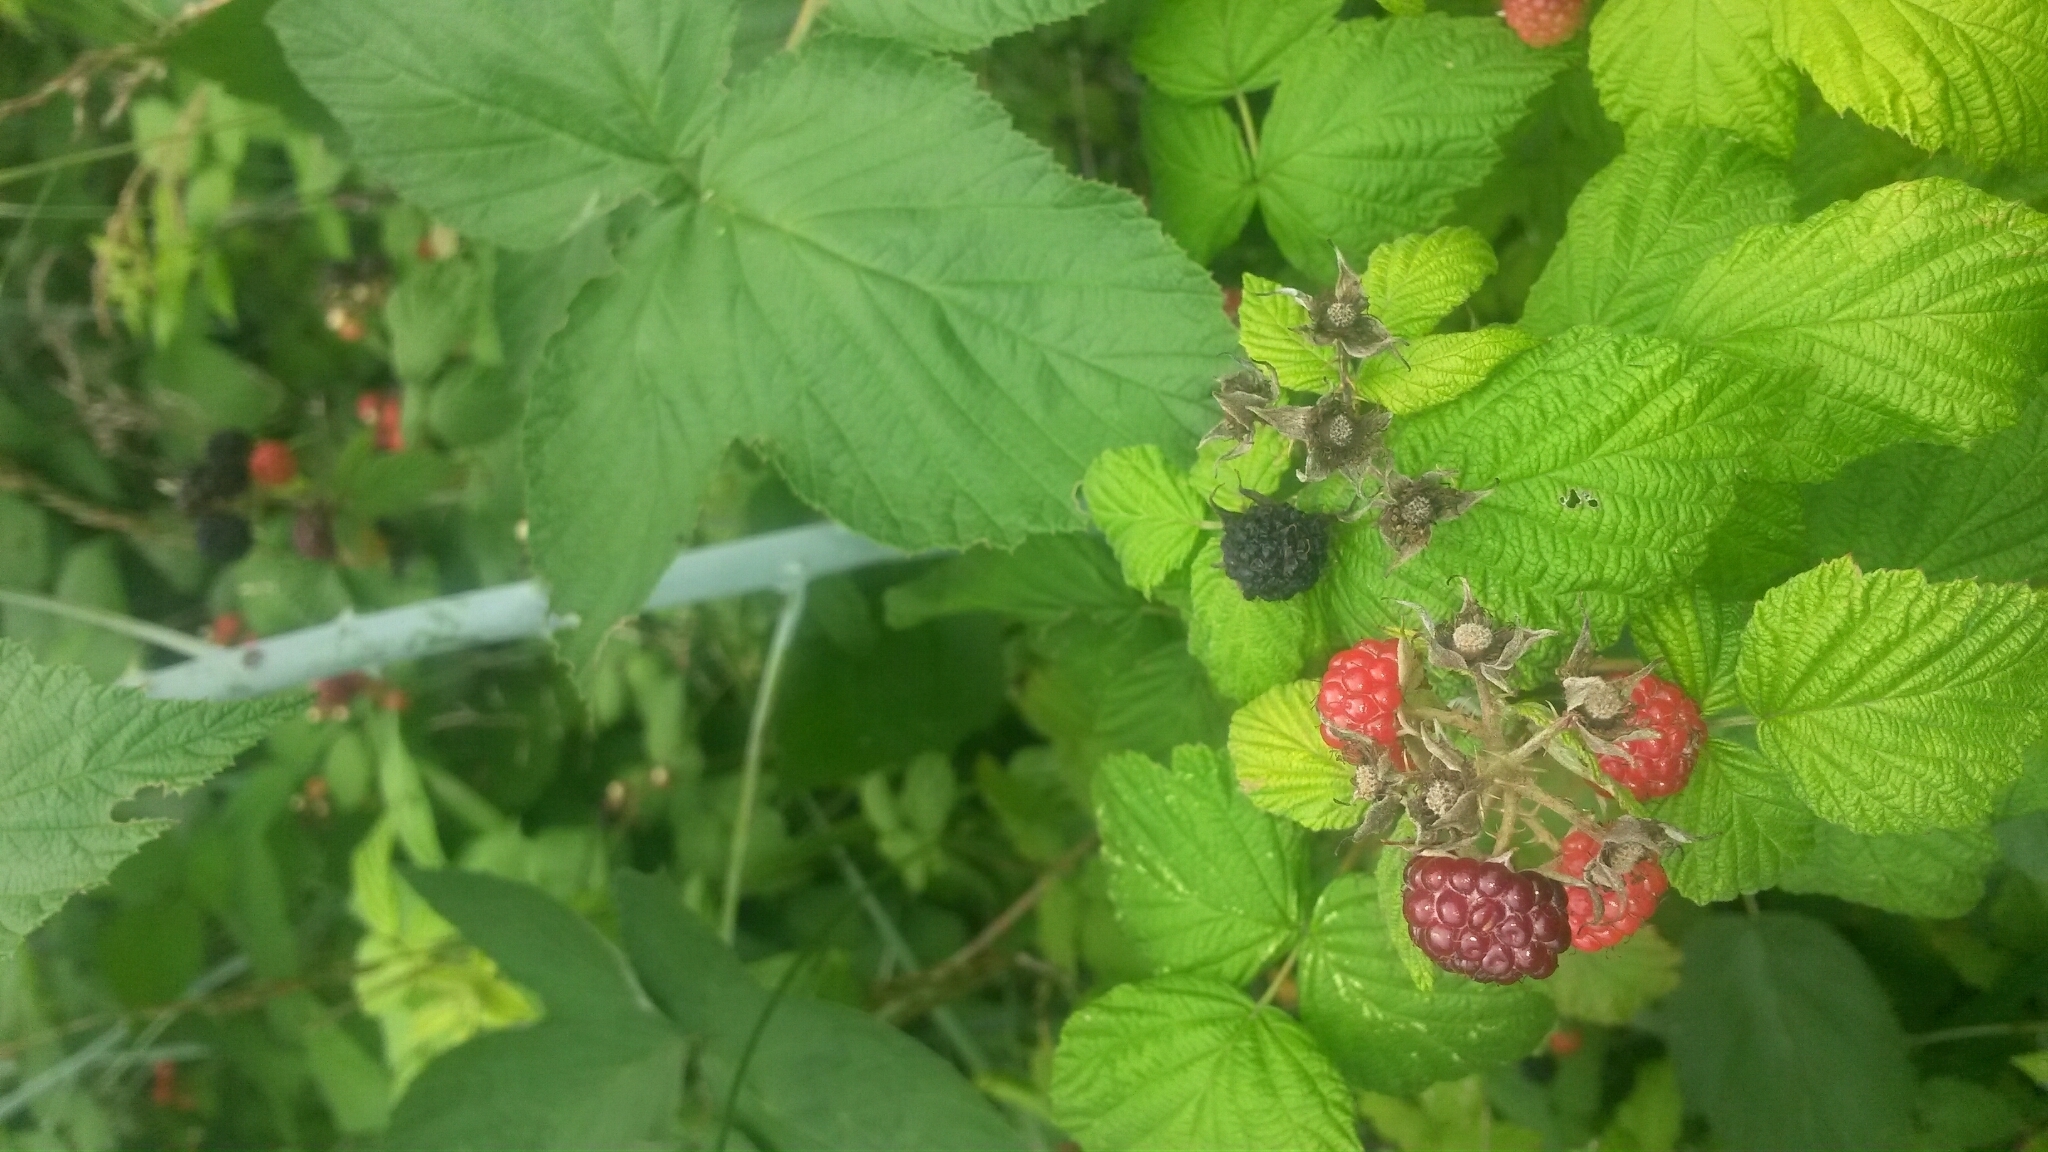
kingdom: Plantae
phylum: Tracheophyta
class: Magnoliopsida
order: Rosales
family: Rosaceae
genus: Rubus
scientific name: Rubus occidentalis
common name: Black raspberry
